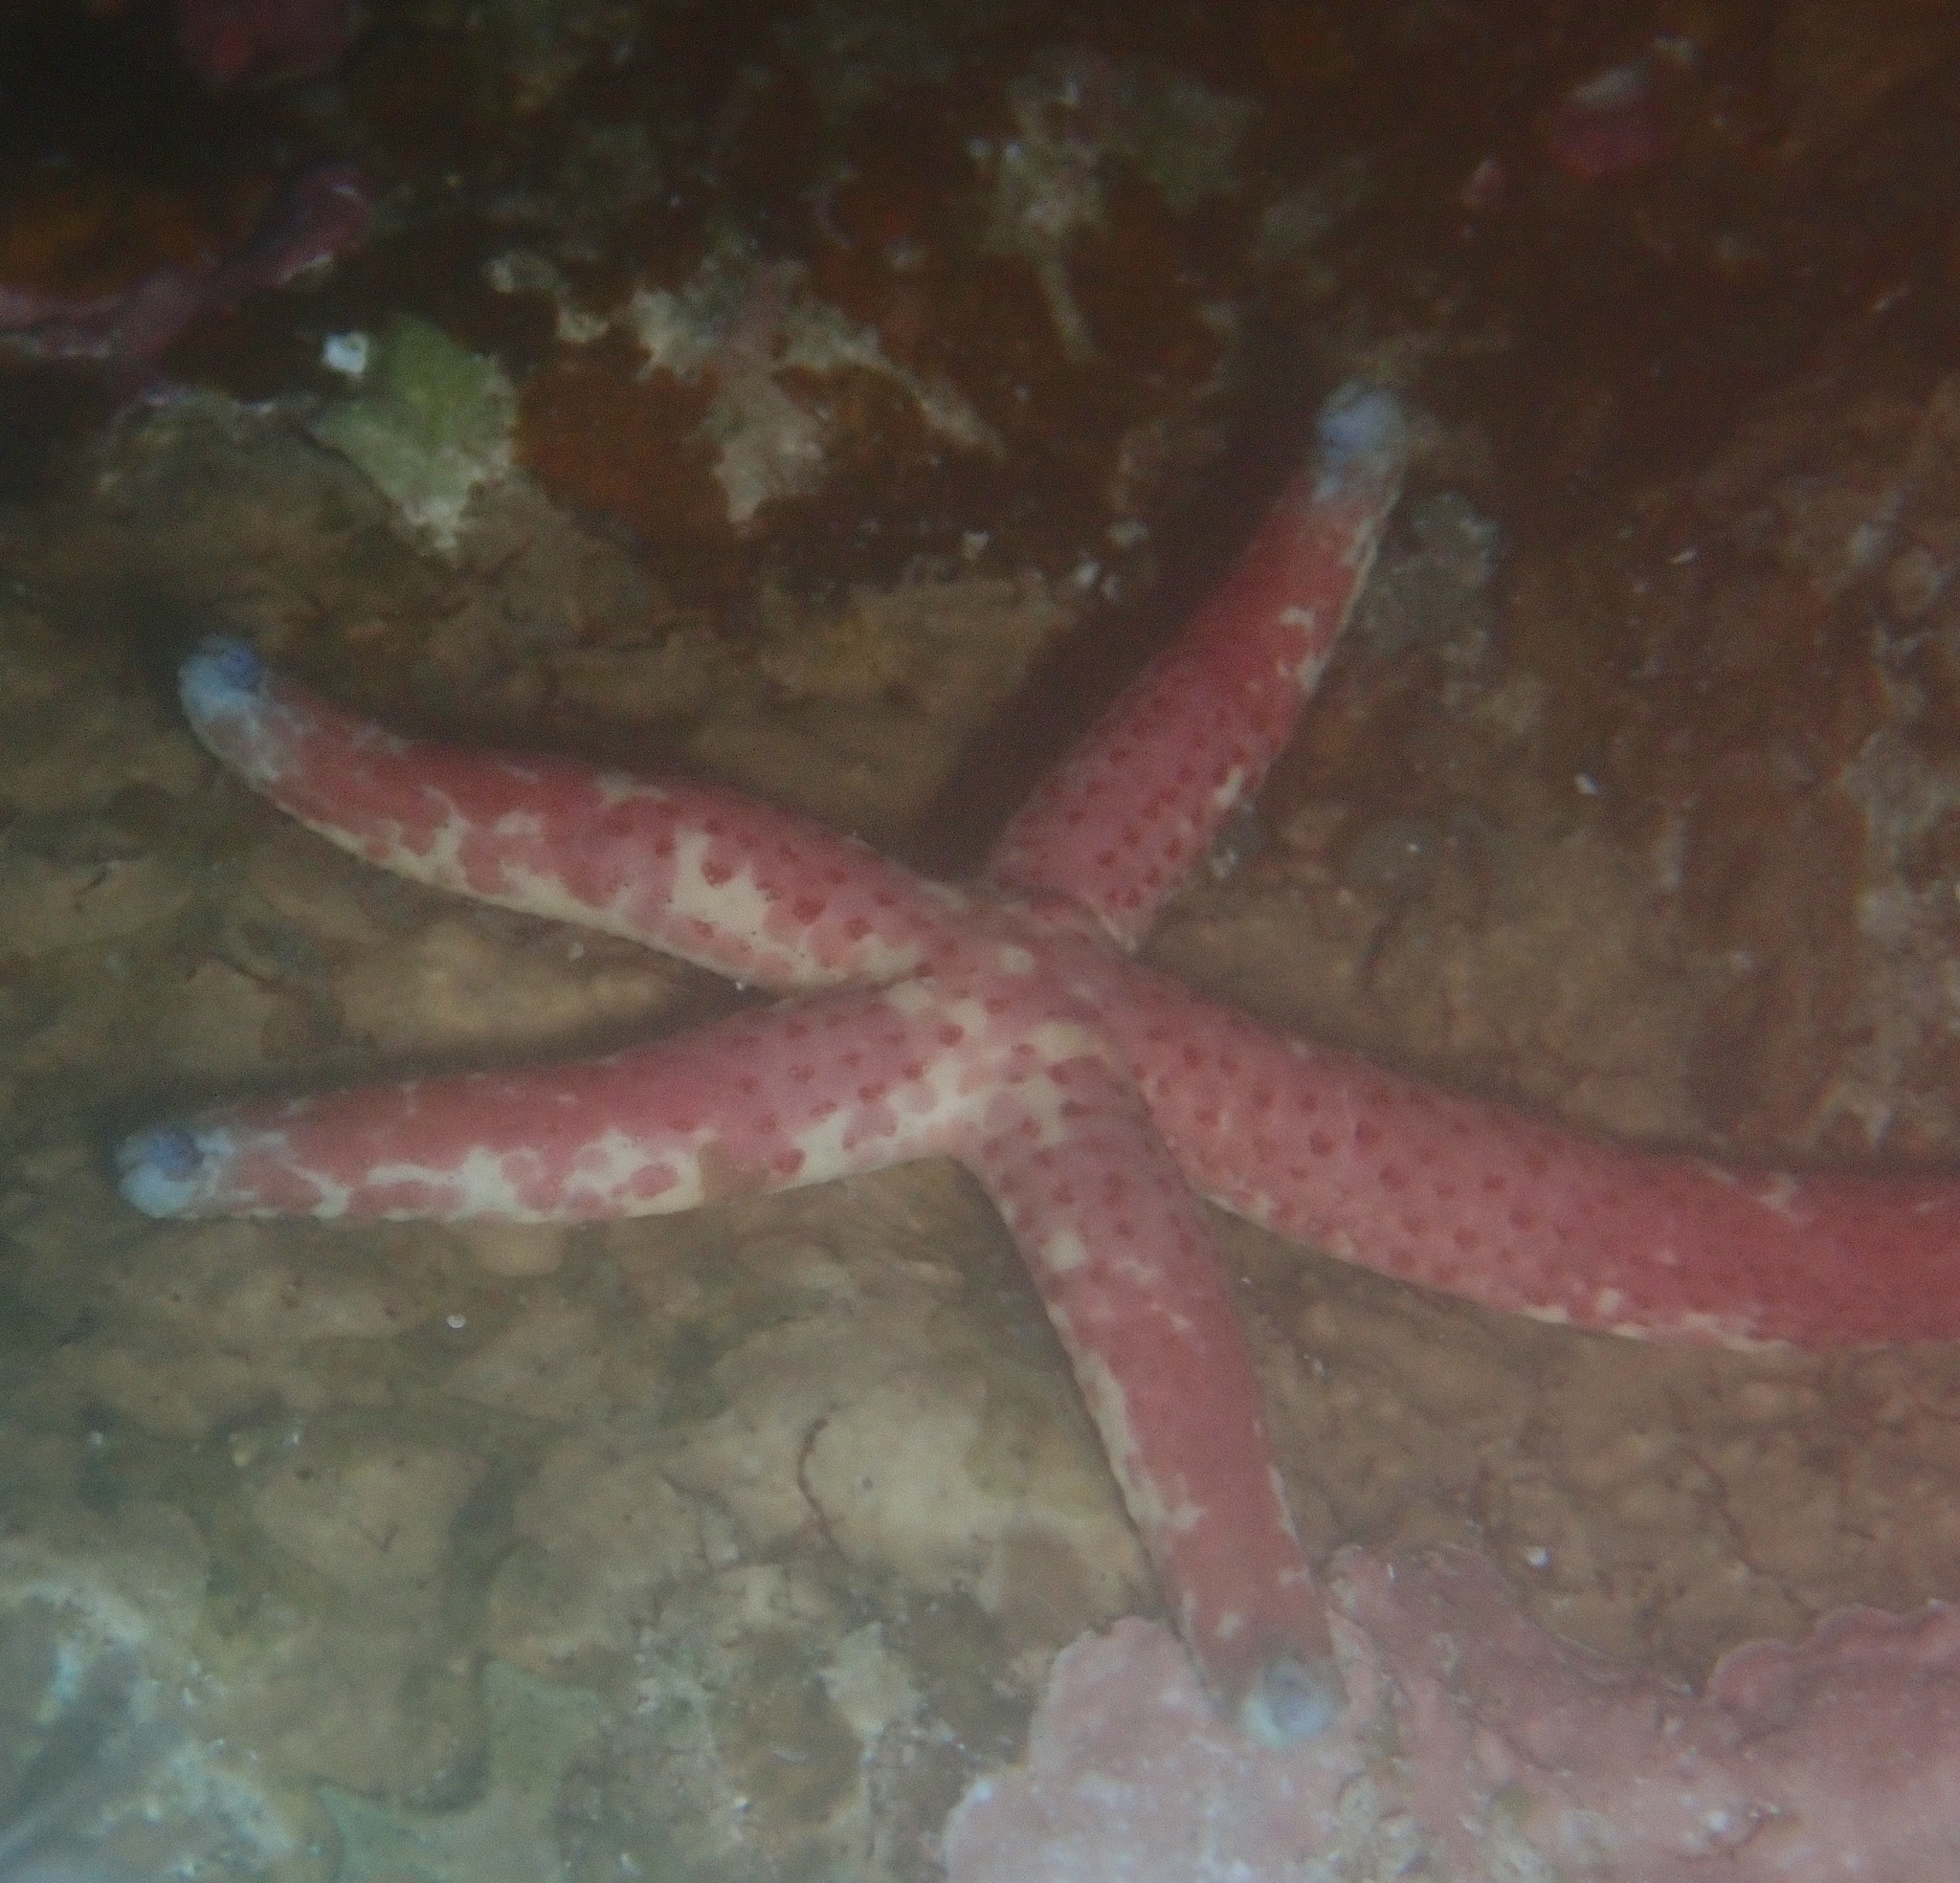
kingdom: Animalia
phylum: Echinodermata
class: Asteroidea
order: Valvatida
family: Ophidiasteridae
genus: Linckia
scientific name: Linckia multifora
